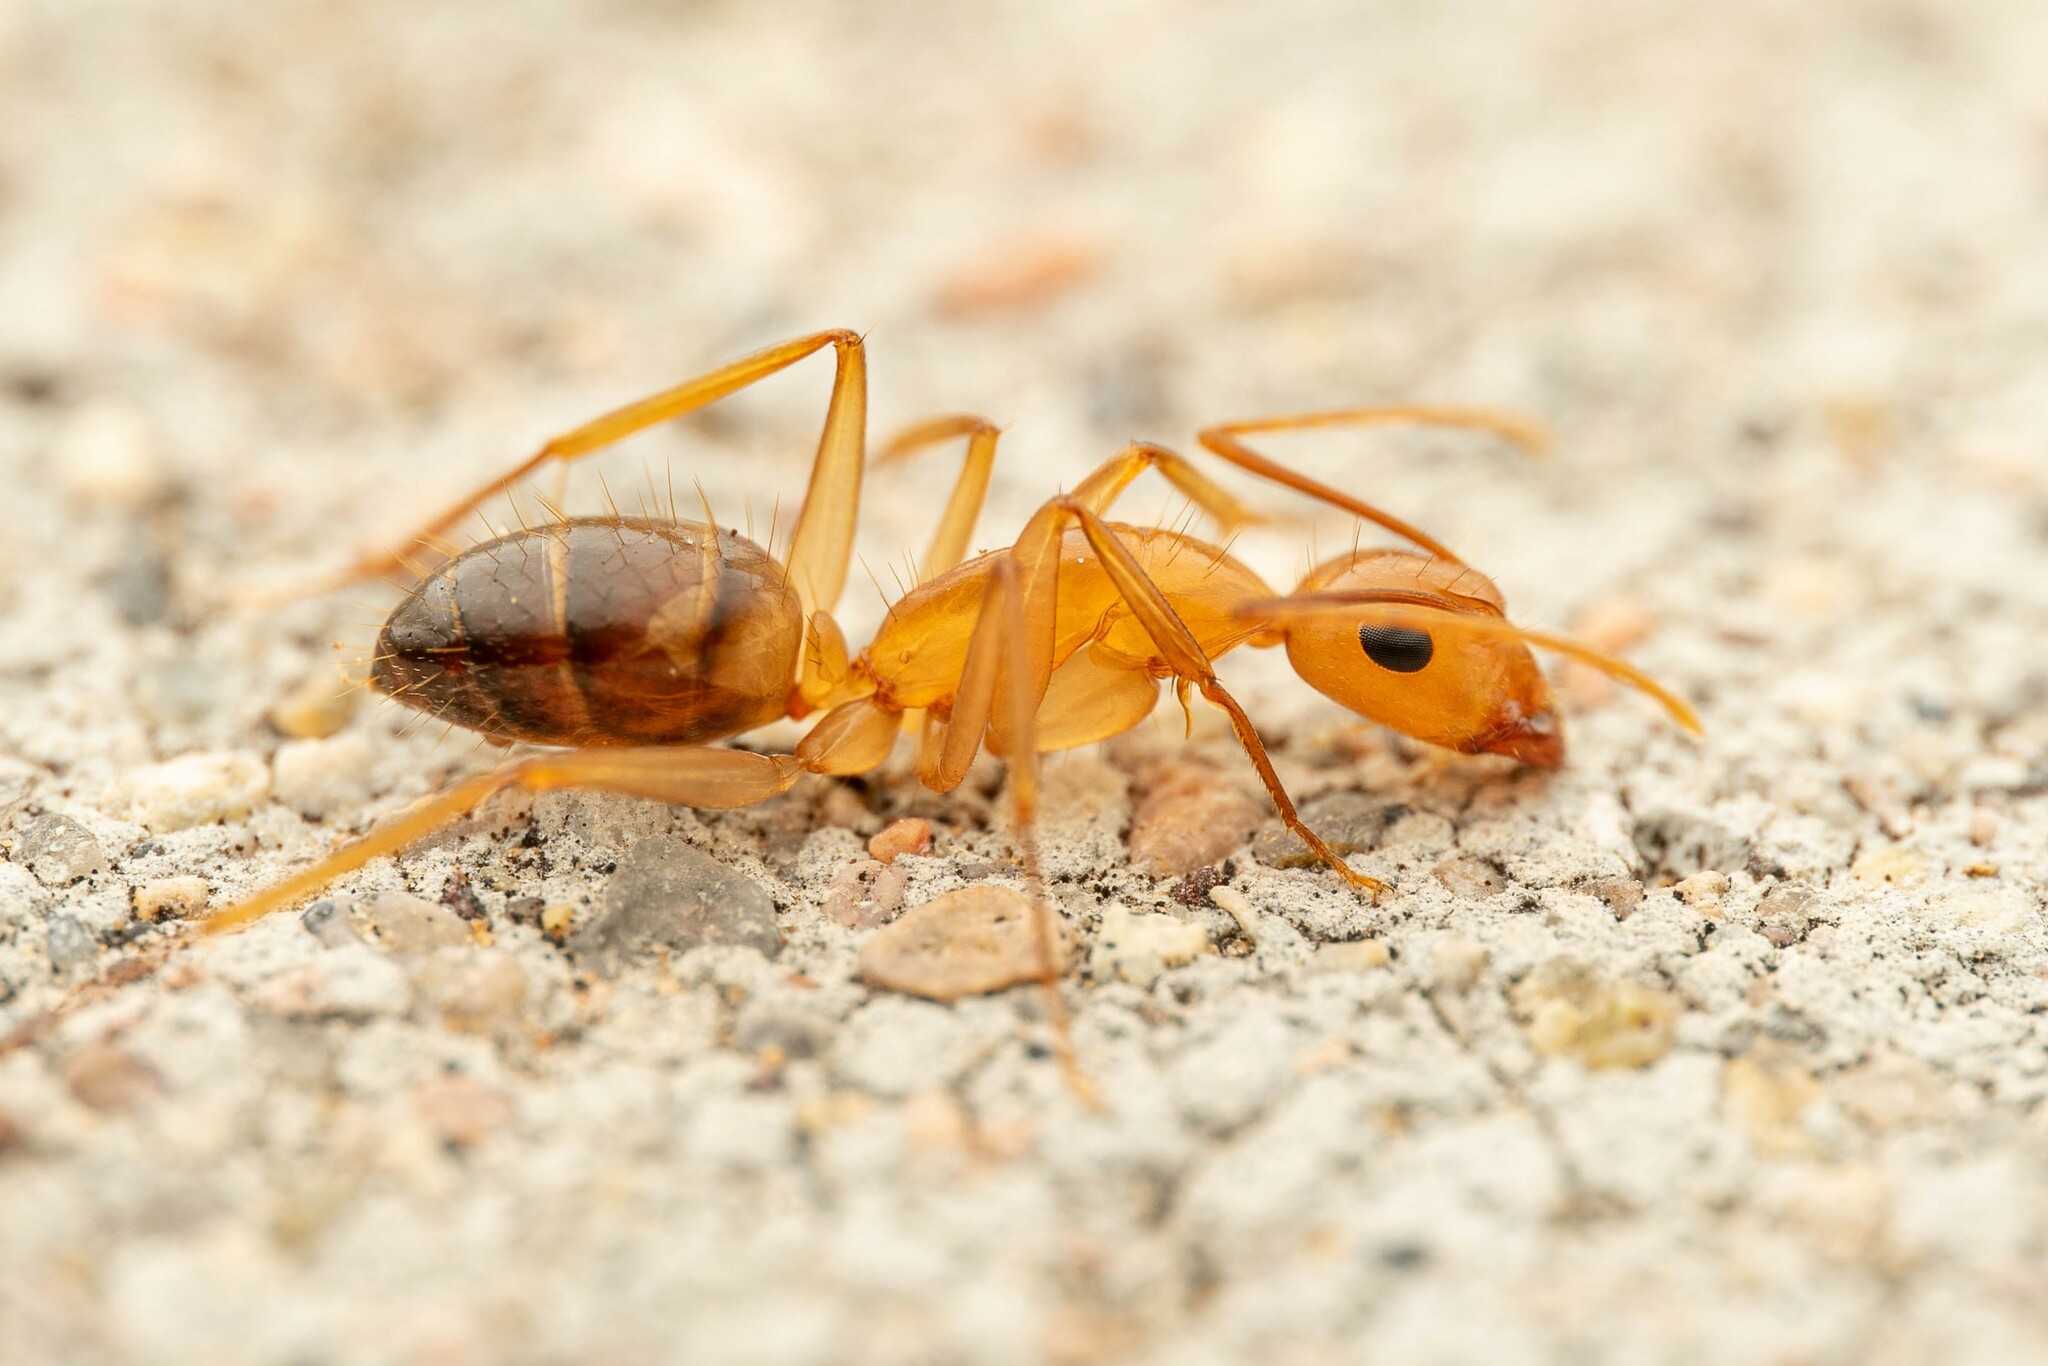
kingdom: Animalia
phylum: Arthropoda
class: Insecta
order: Hymenoptera
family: Formicidae
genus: Camponotus
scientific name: Camponotus
